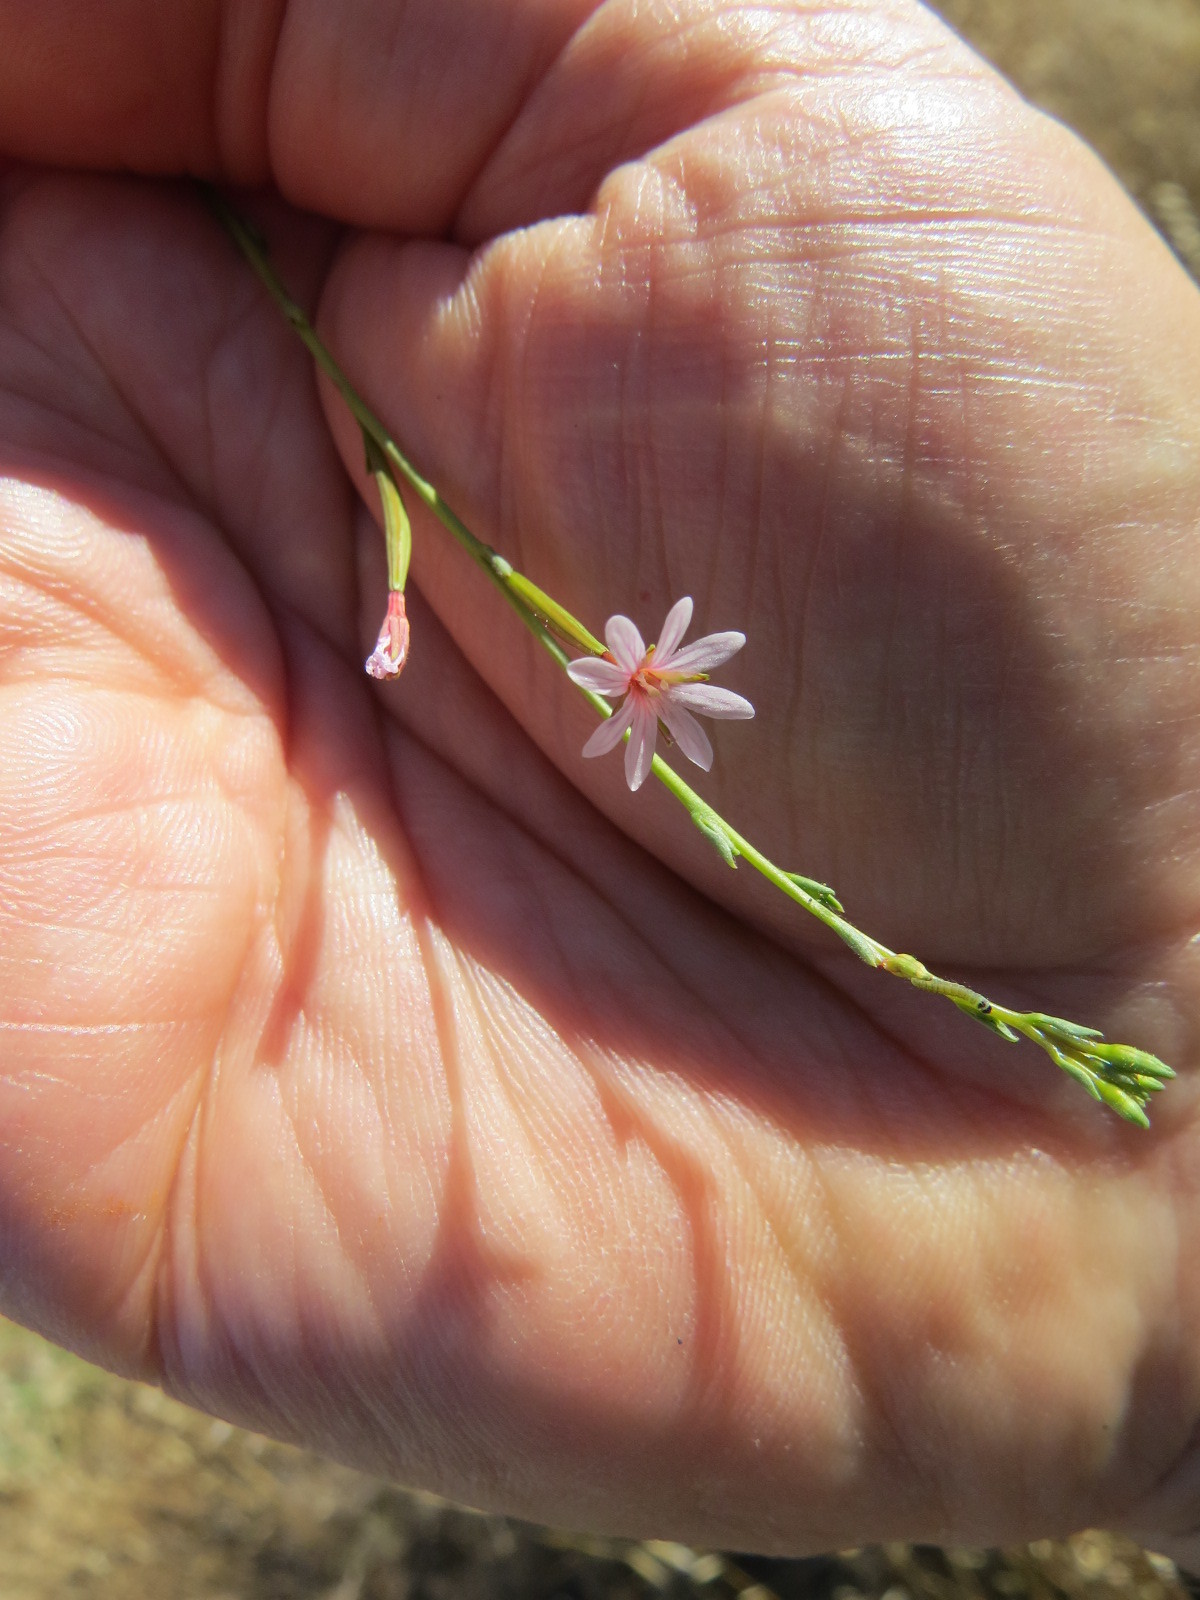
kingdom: Plantae
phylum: Tracheophyta
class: Magnoliopsida
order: Myrtales
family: Onagraceae
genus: Epilobium
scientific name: Epilobium brachycarpum
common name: Annual willowherb
